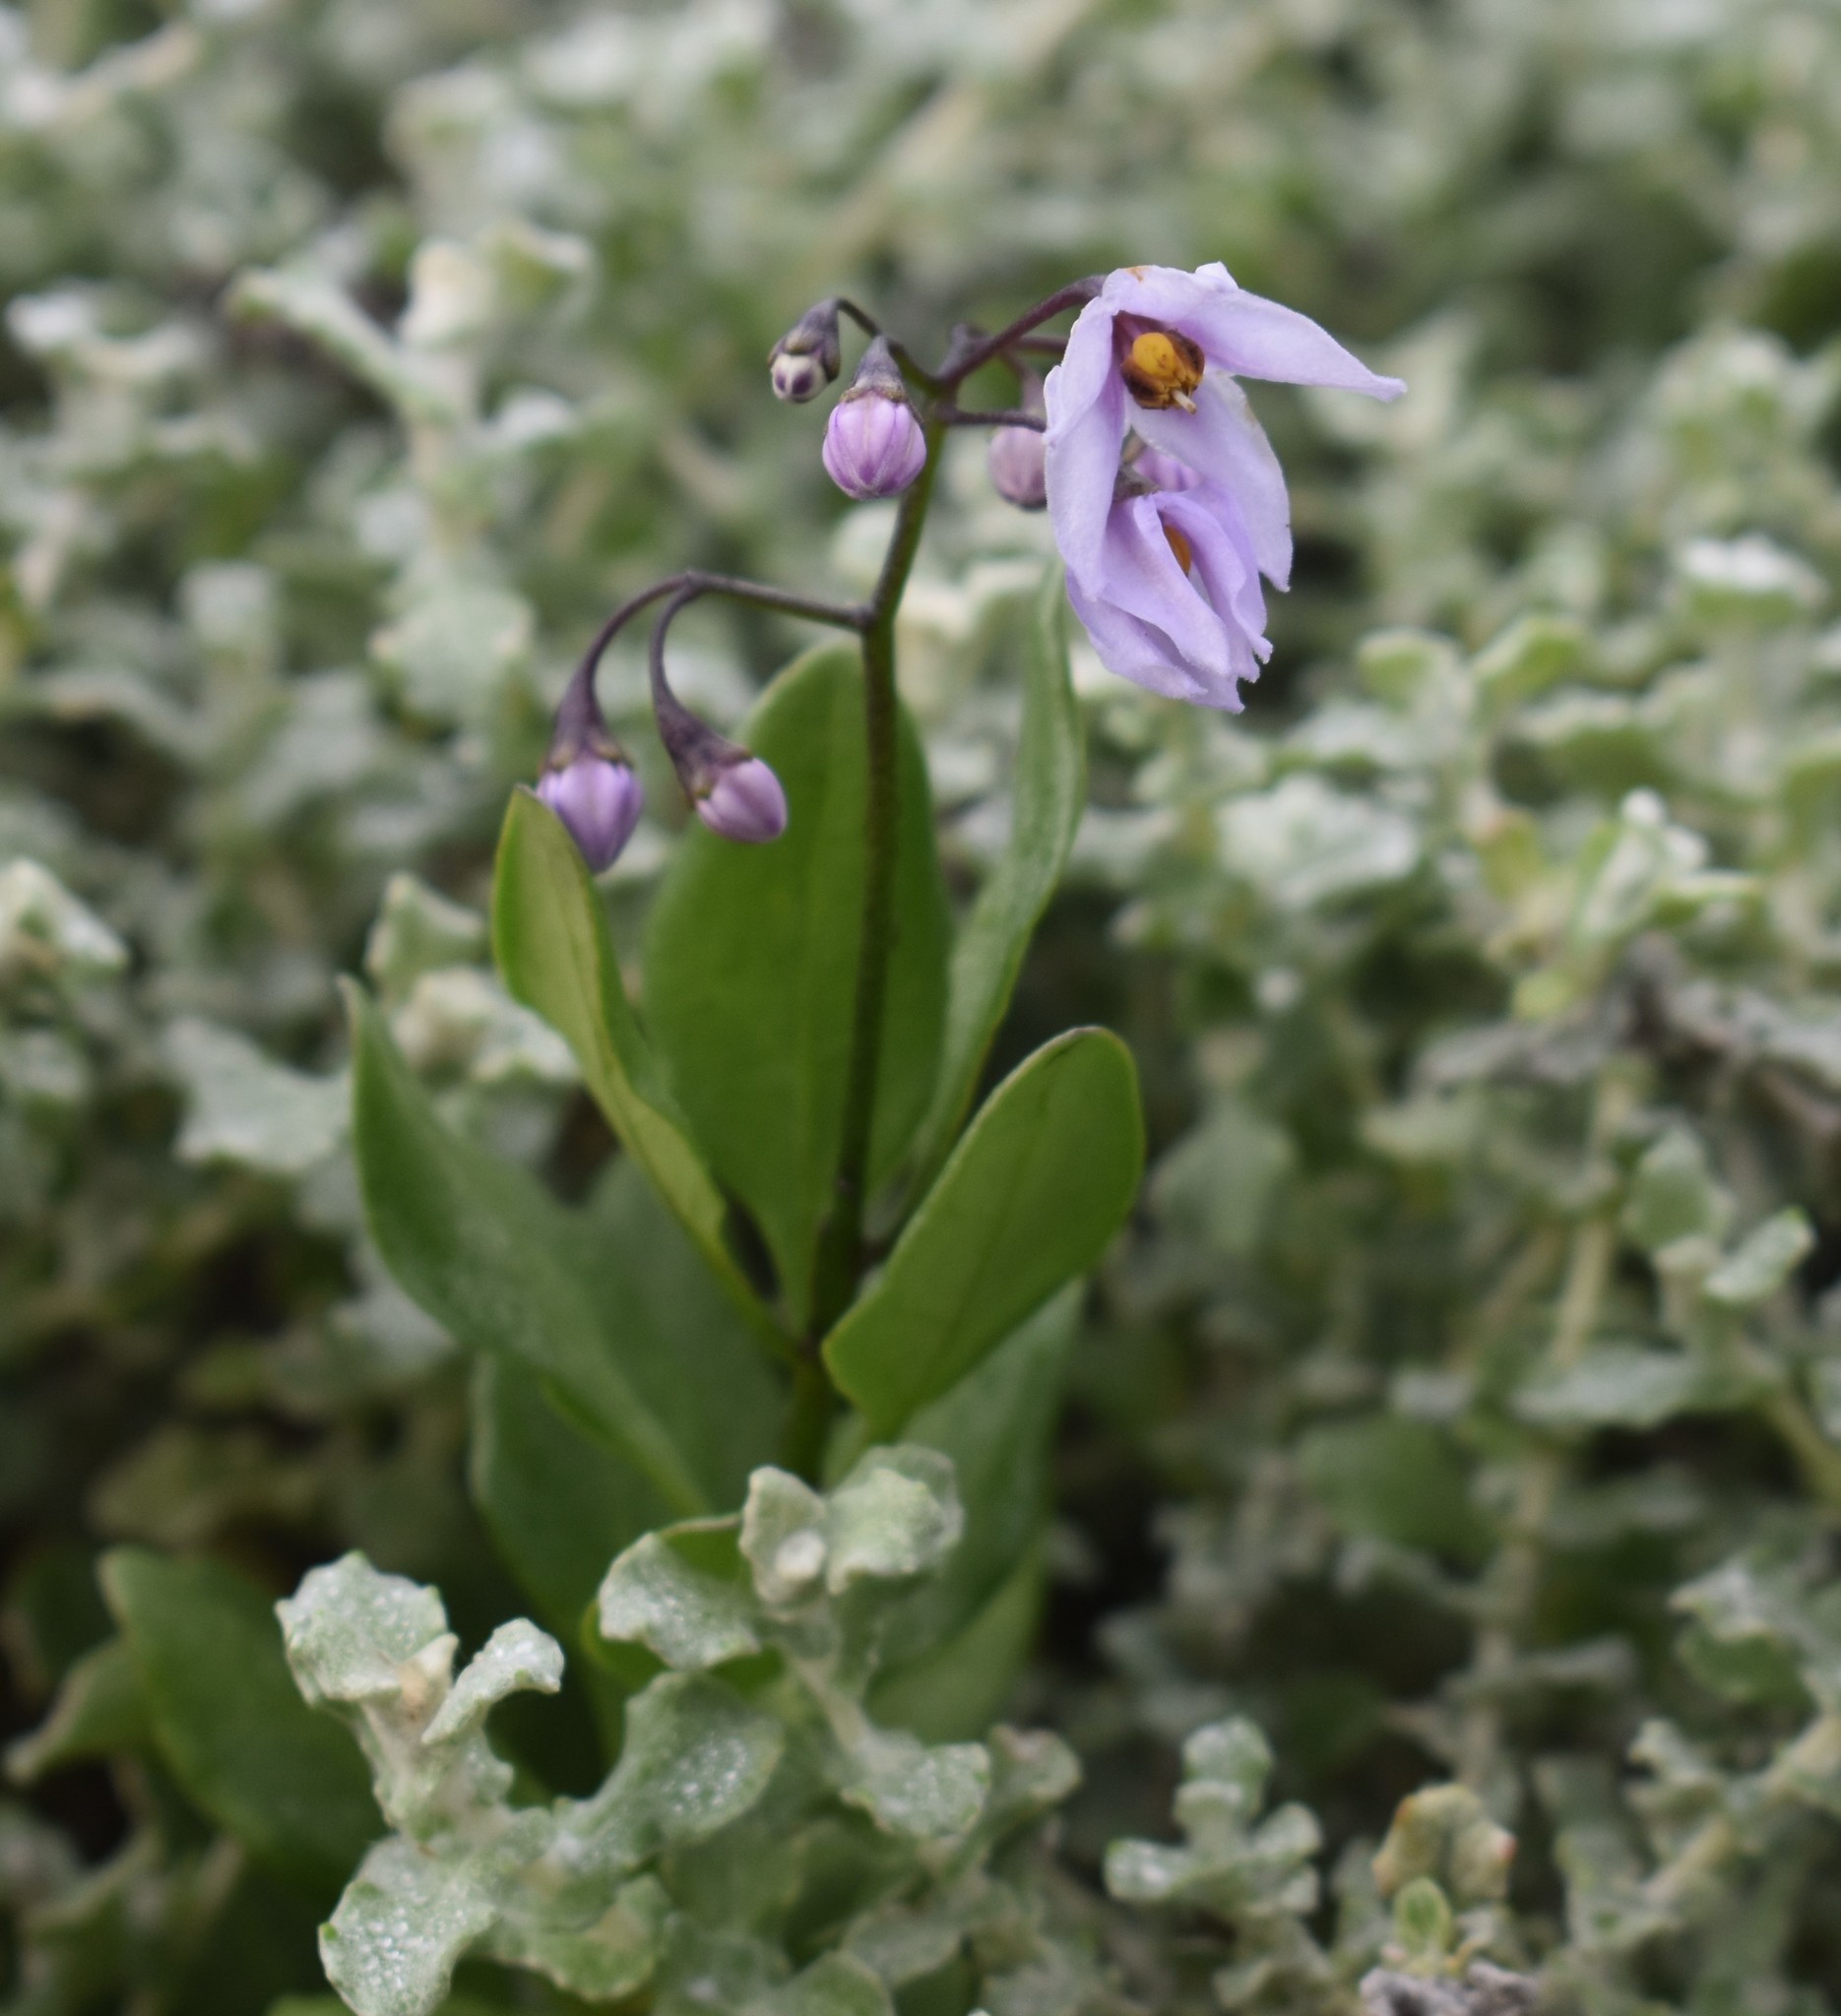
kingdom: Plantae
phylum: Tracheophyta
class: Magnoliopsida
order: Solanales
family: Solanaceae
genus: Solanum
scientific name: Solanum africanum
